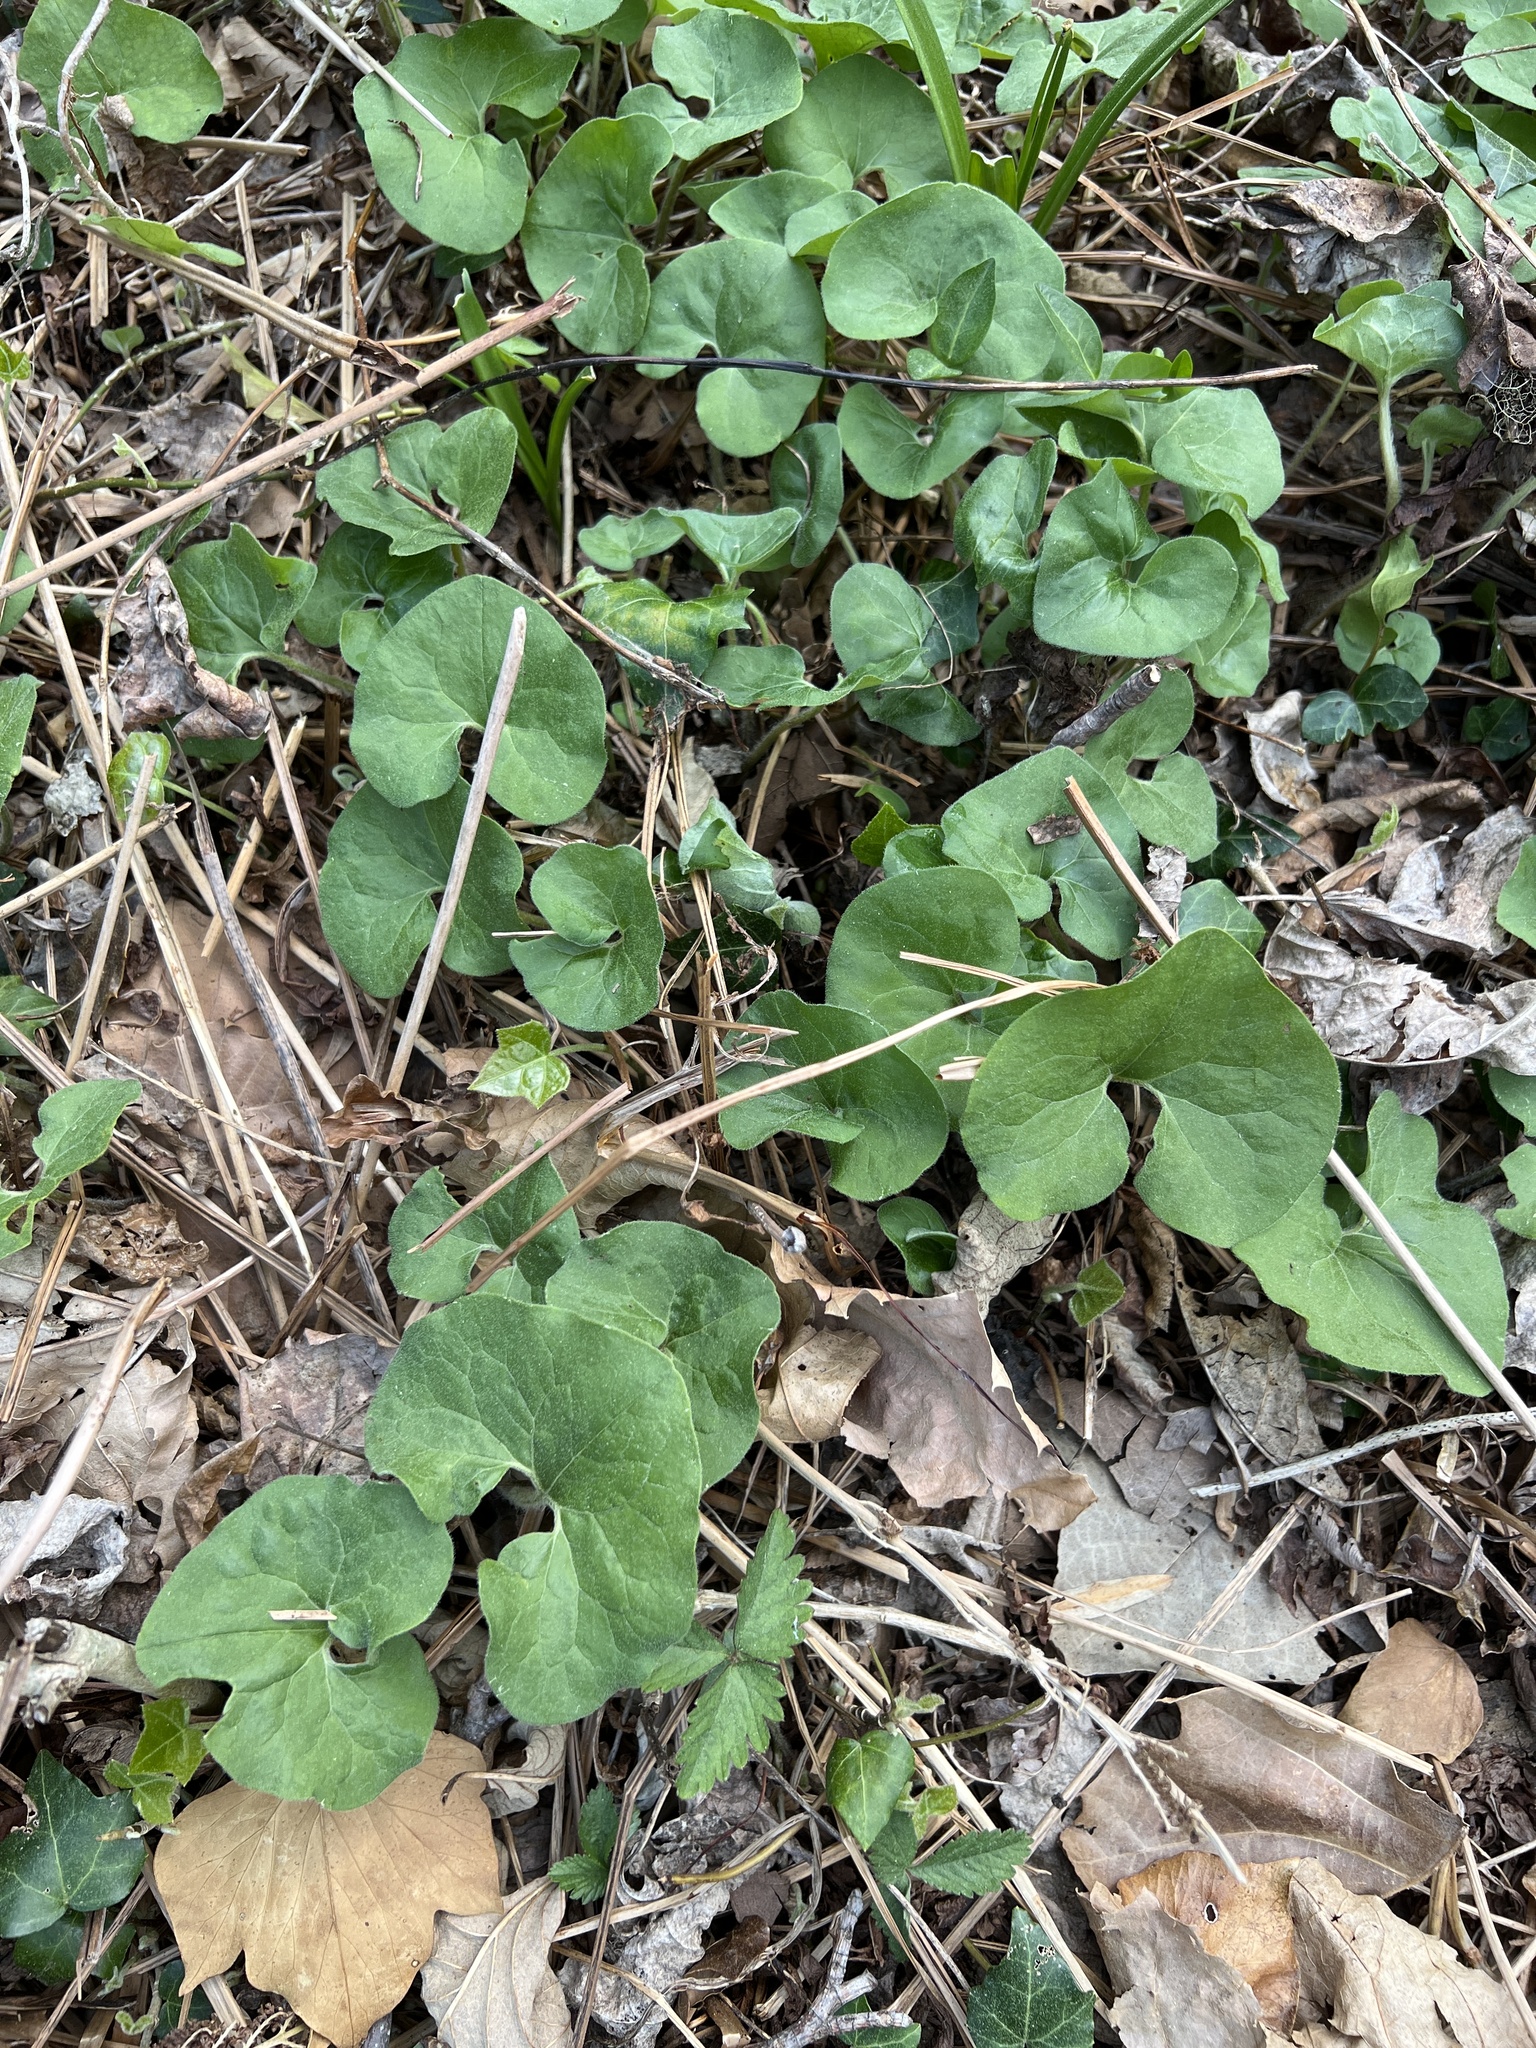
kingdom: Plantae
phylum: Tracheophyta
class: Magnoliopsida
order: Piperales
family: Aristolochiaceae
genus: Asarum
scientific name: Asarum canadense
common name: Wild ginger
